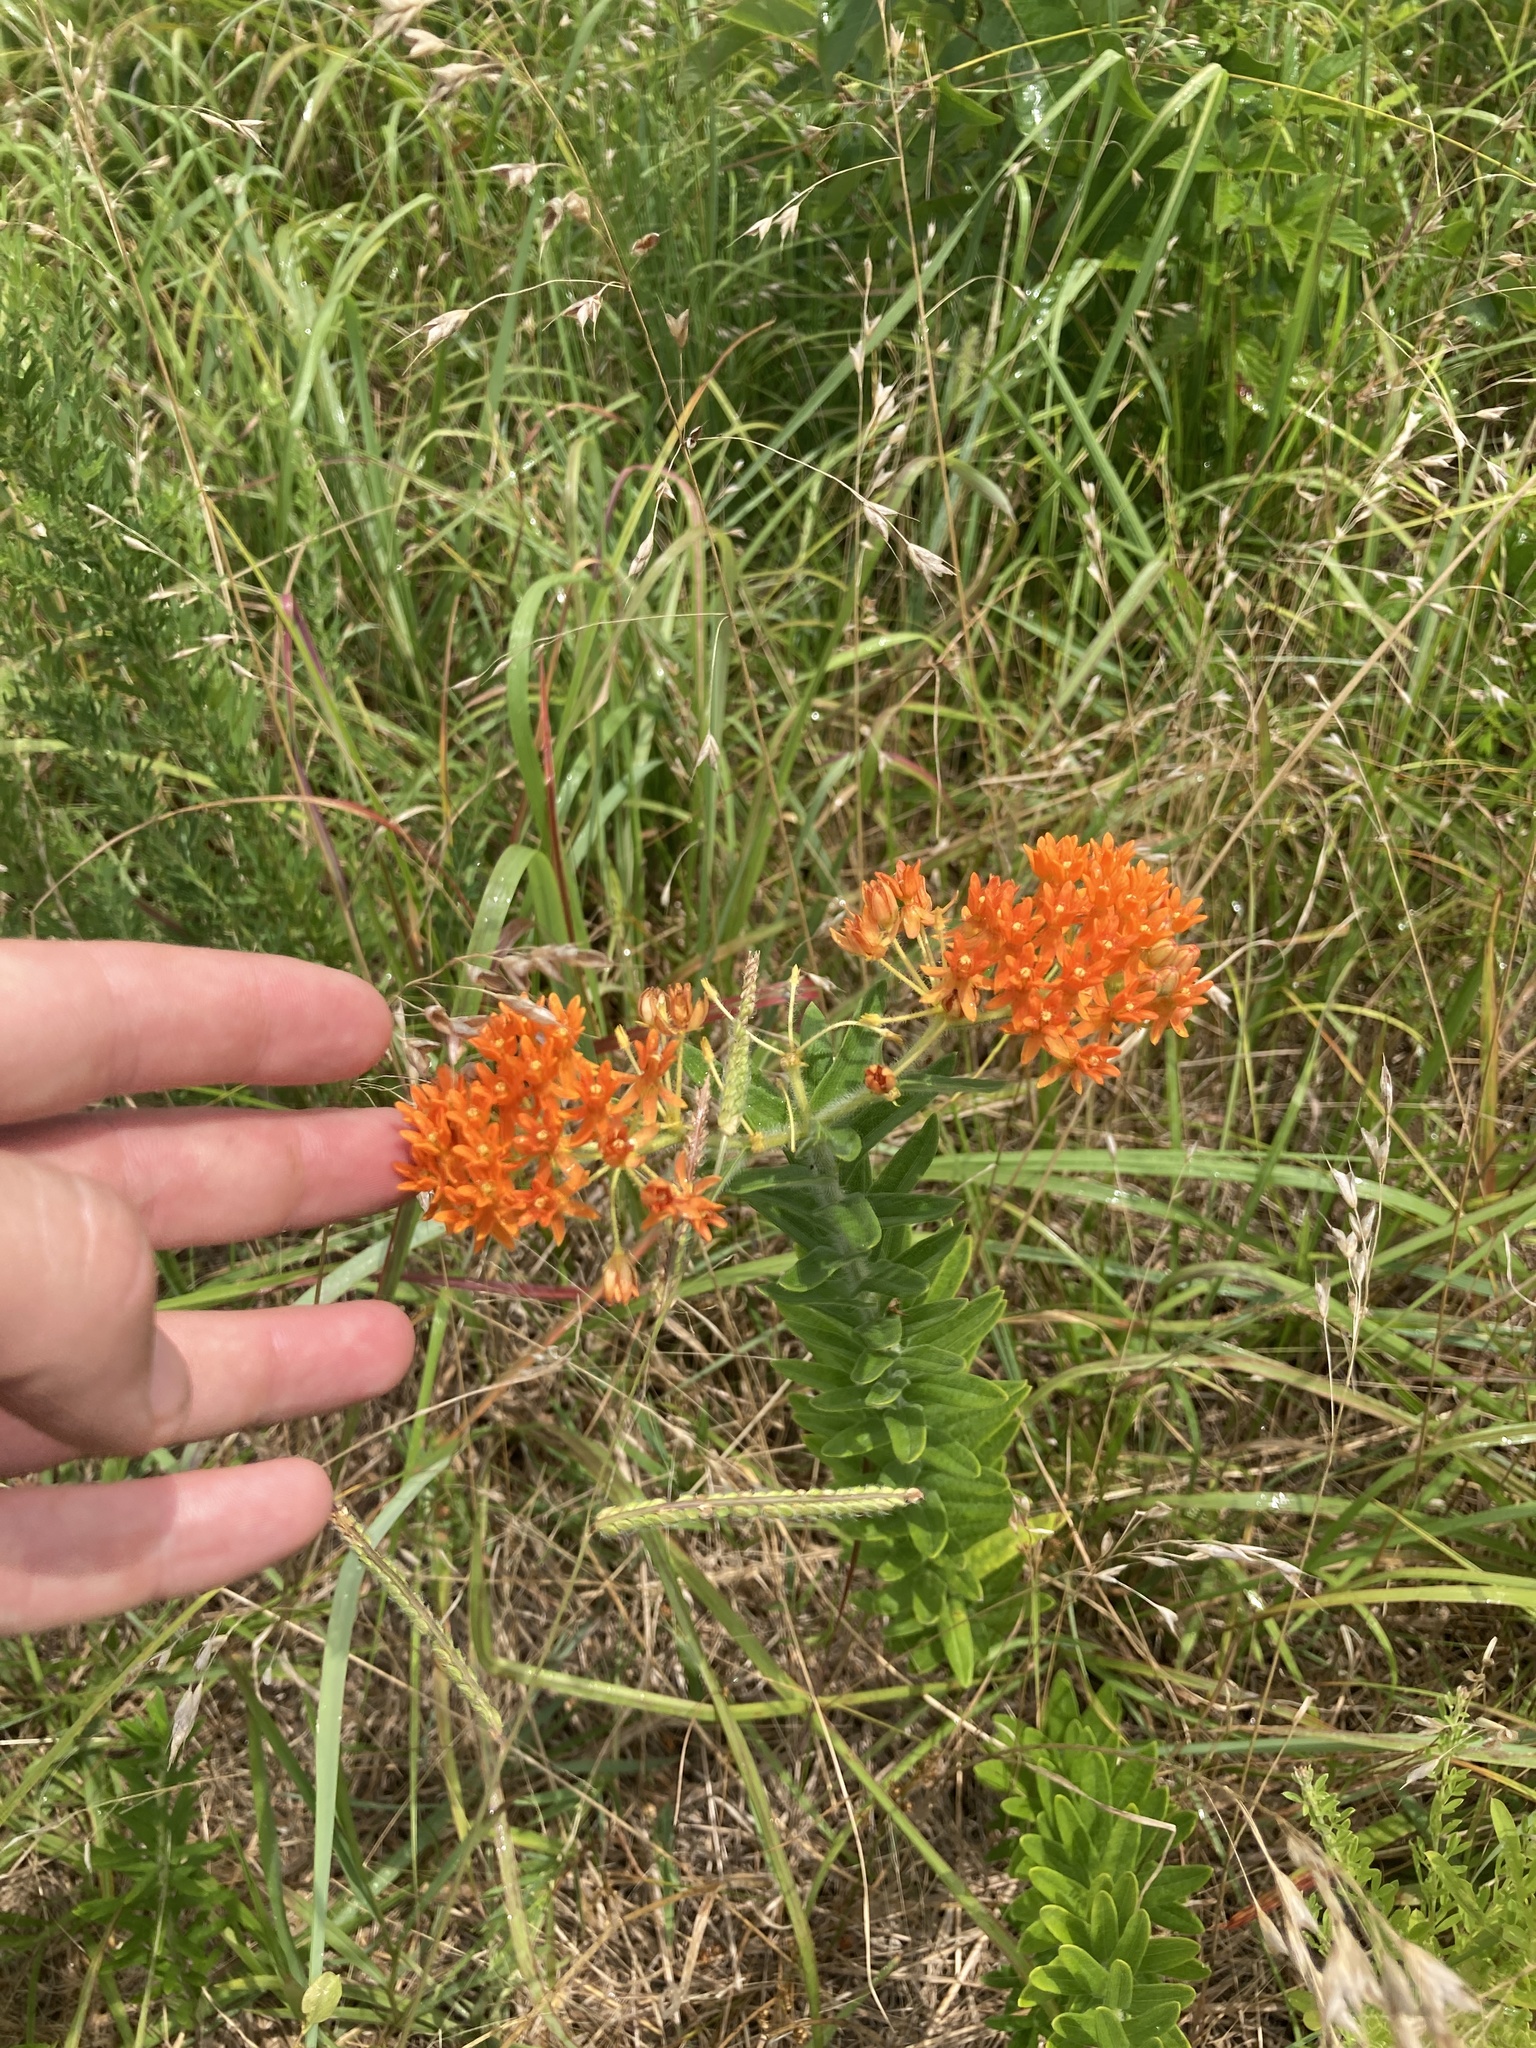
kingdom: Plantae
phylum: Tracheophyta
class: Magnoliopsida
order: Gentianales
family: Apocynaceae
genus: Asclepias
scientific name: Asclepias tuberosa
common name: Butterfly milkweed
